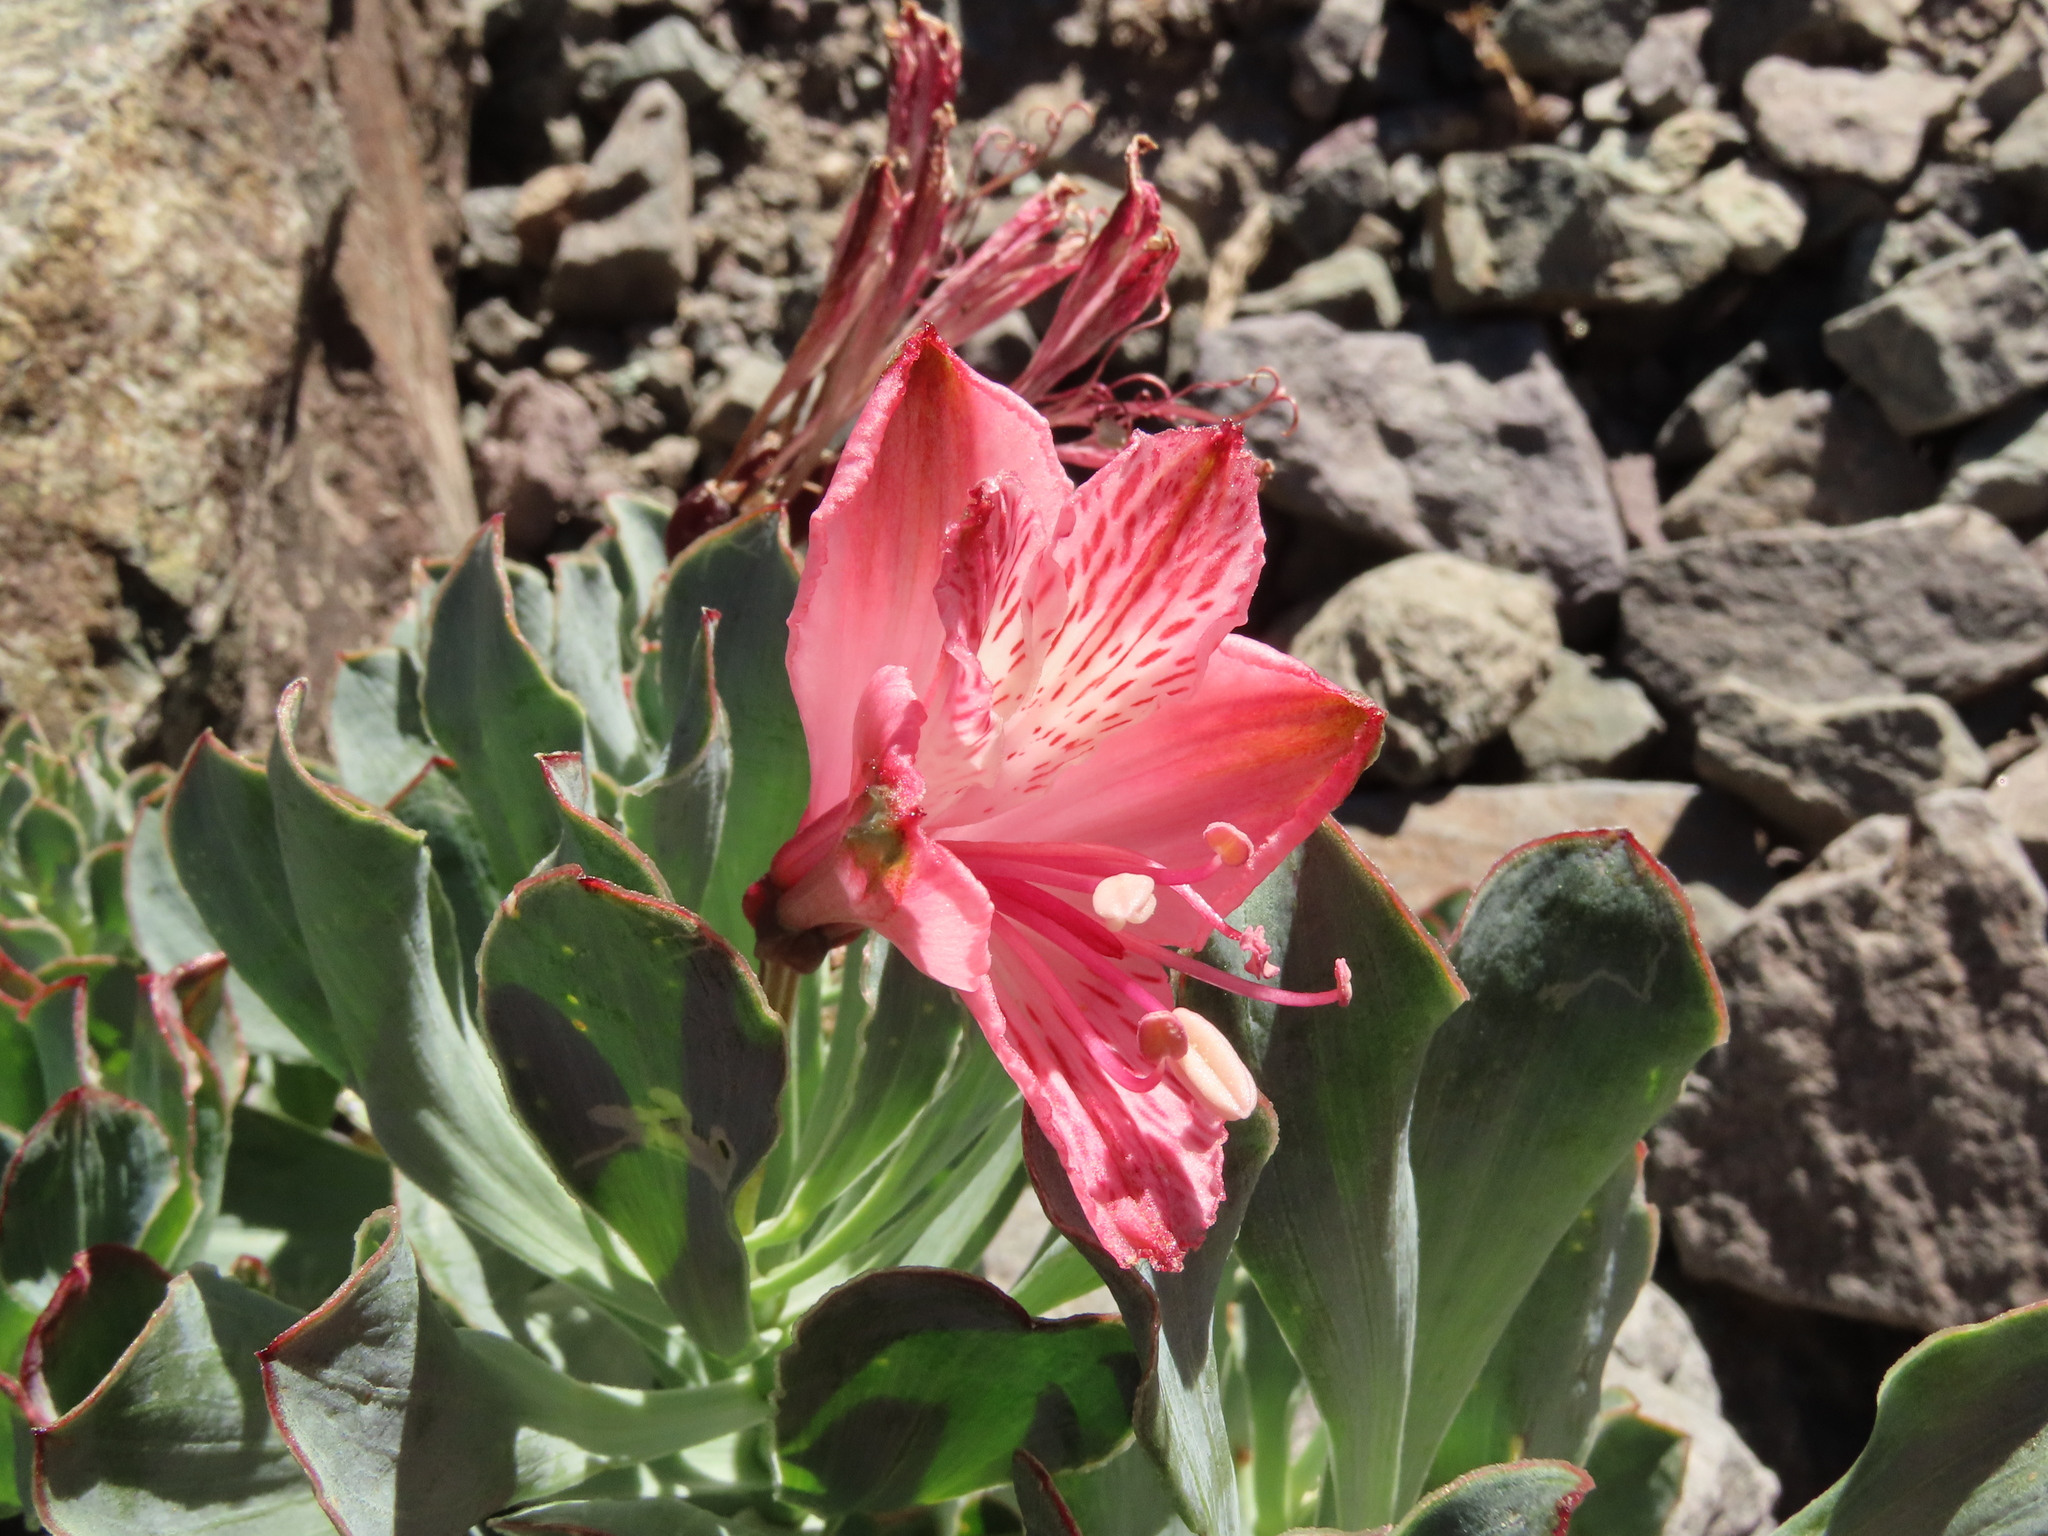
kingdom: Plantae
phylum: Tracheophyta
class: Liliopsida
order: Liliales
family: Alstroemeriaceae
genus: Alstroemeria
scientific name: Alstroemeria spathulata
